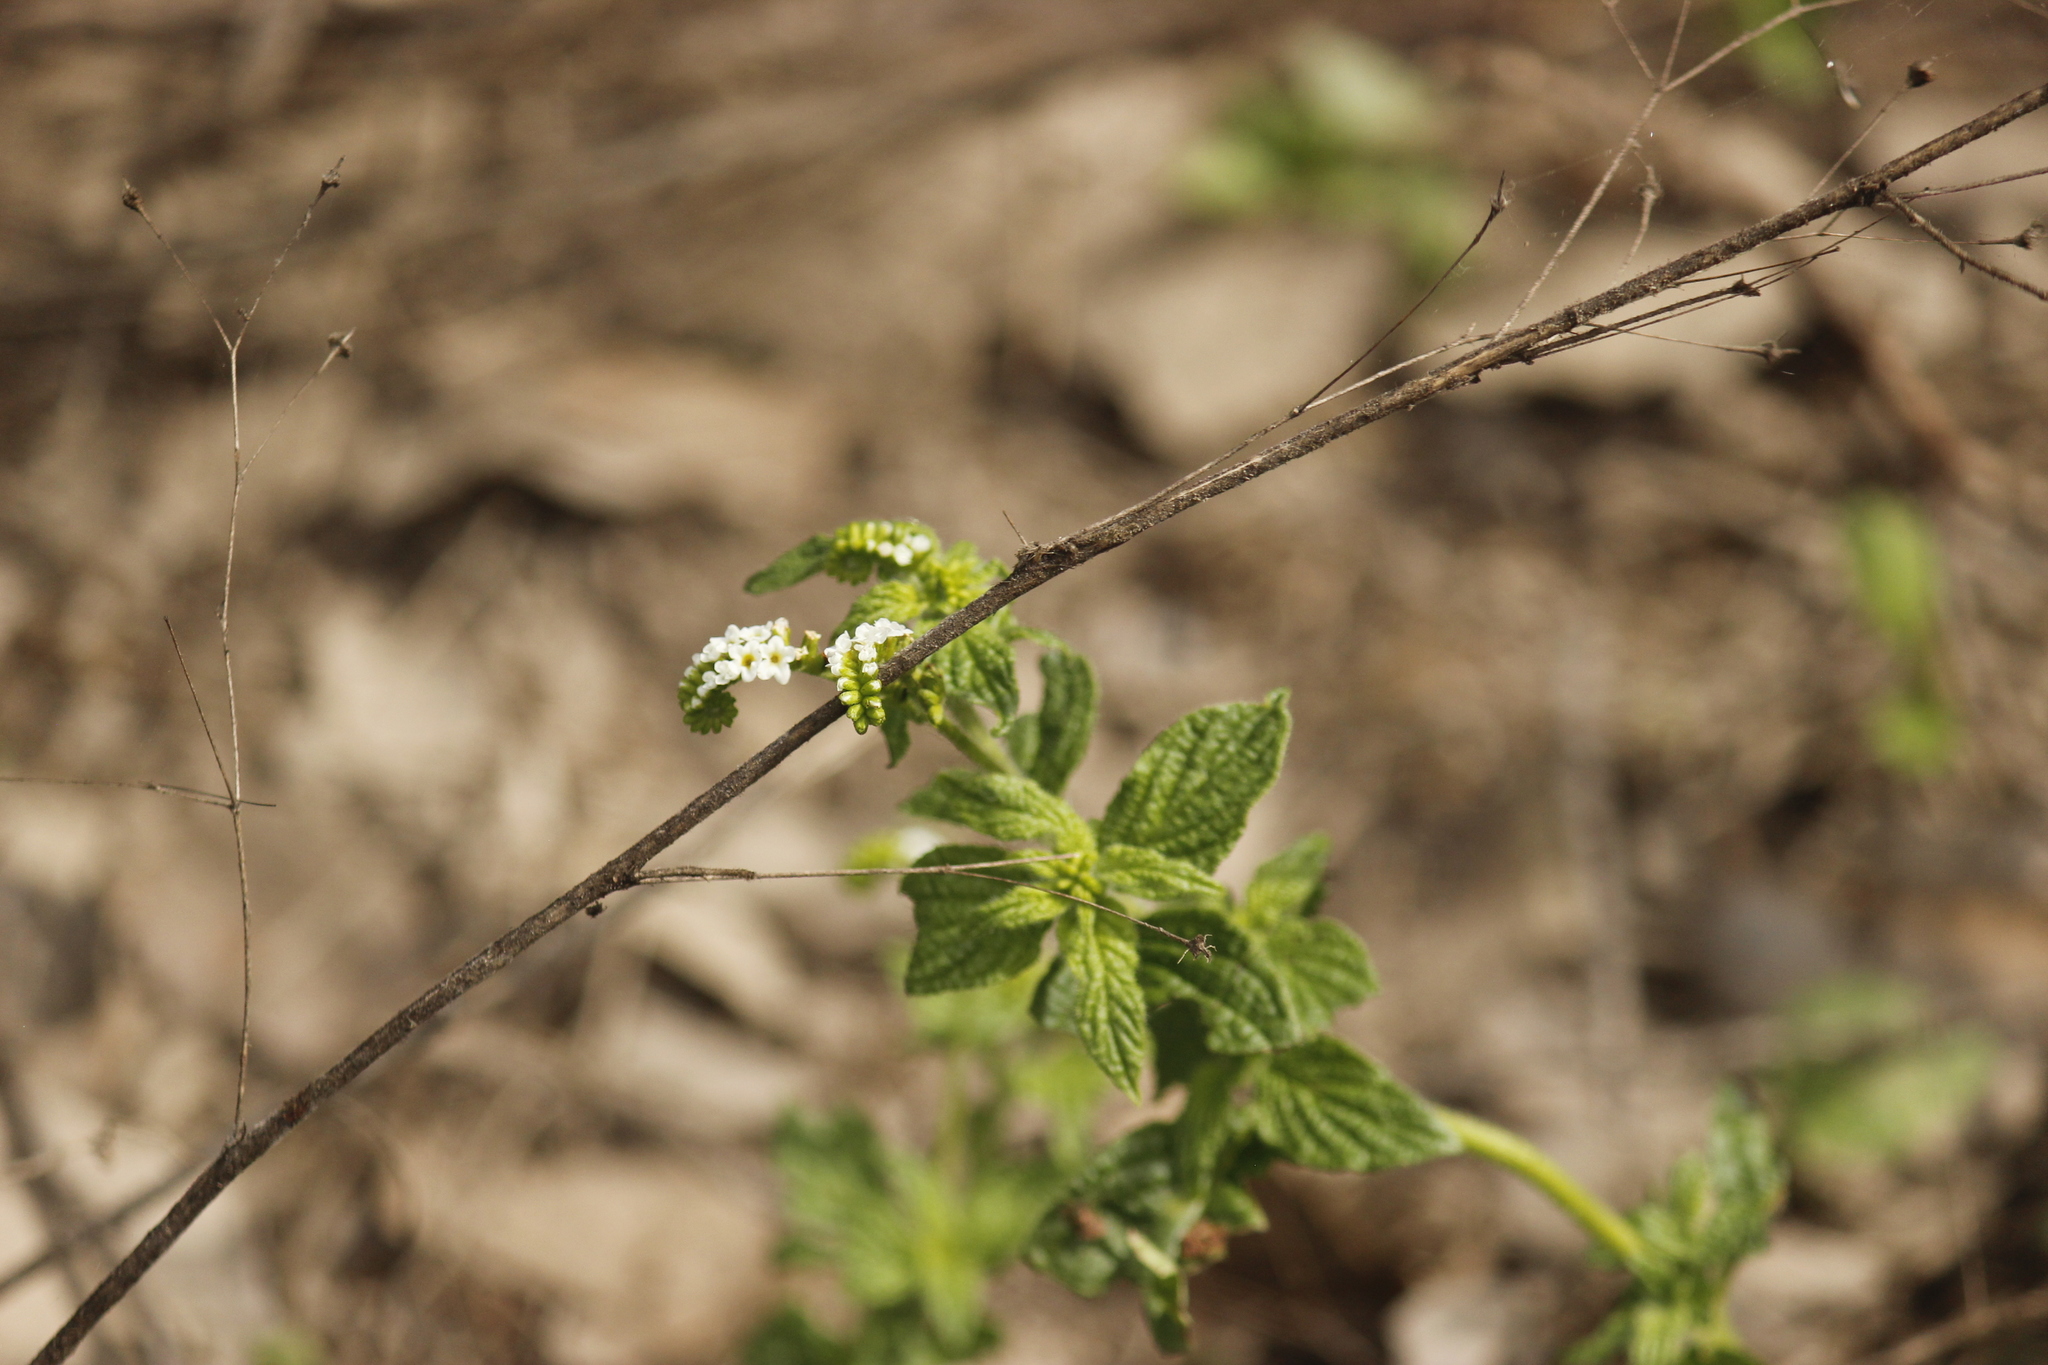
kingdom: Plantae
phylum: Tracheophyta
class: Magnoliopsida
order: Boraginales
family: Heliotropiaceae
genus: Heliotropium
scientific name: Heliotropium angiospermum
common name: Eye bright
